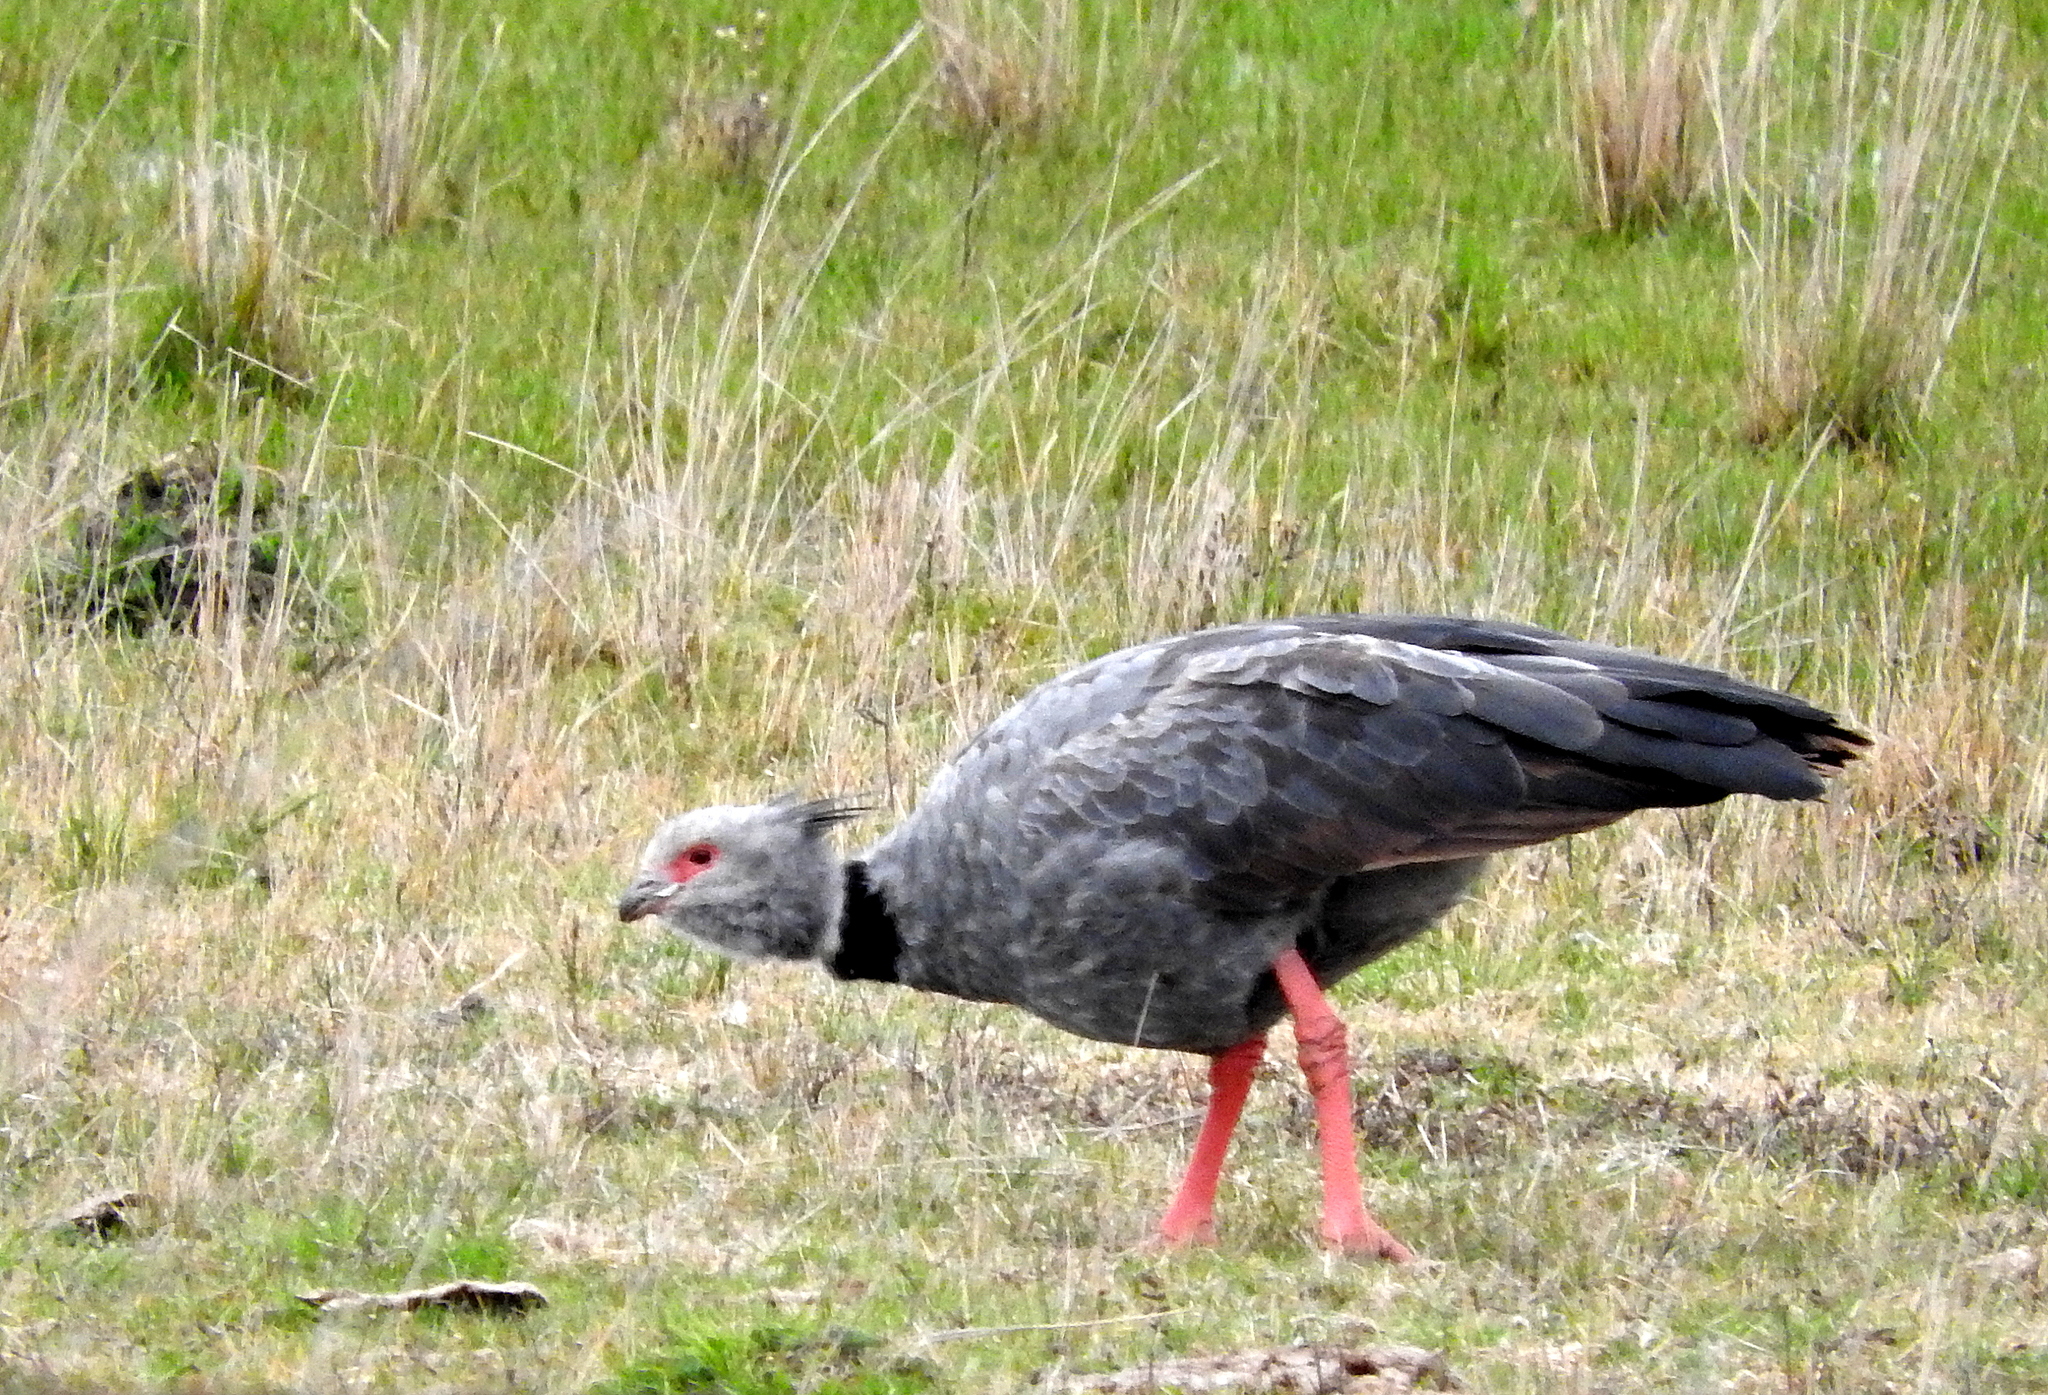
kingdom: Animalia
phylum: Chordata
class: Aves
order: Anseriformes
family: Anhimidae
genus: Chauna
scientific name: Chauna torquata
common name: Southern screamer
